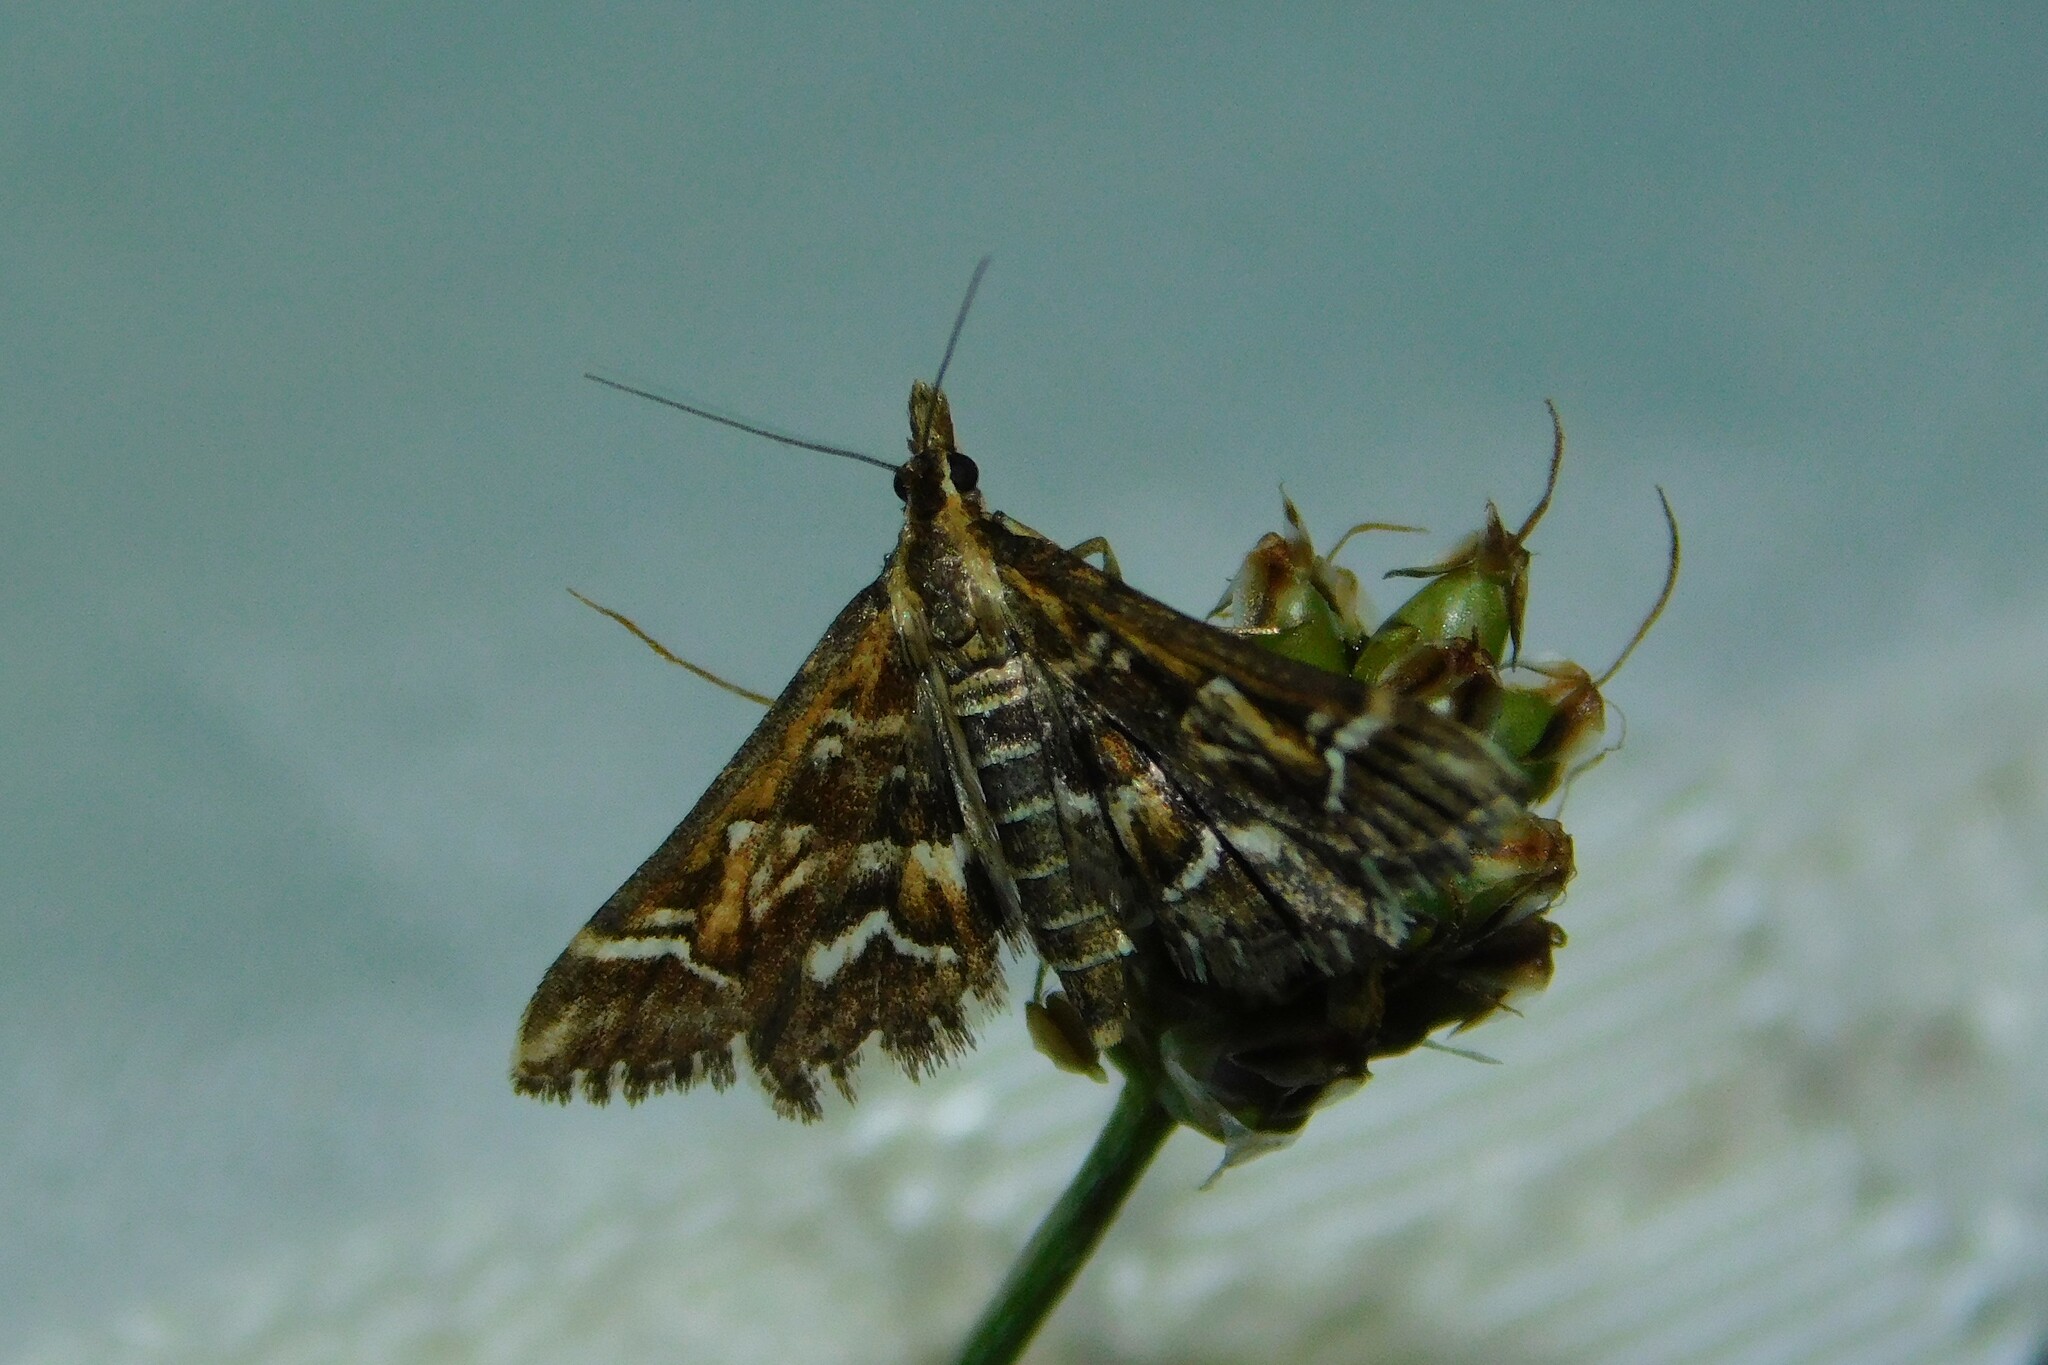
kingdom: Animalia
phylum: Arthropoda
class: Insecta
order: Lepidoptera
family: Crambidae
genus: Diasemia
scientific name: Diasemia reticularis
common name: Lettered china-mark
